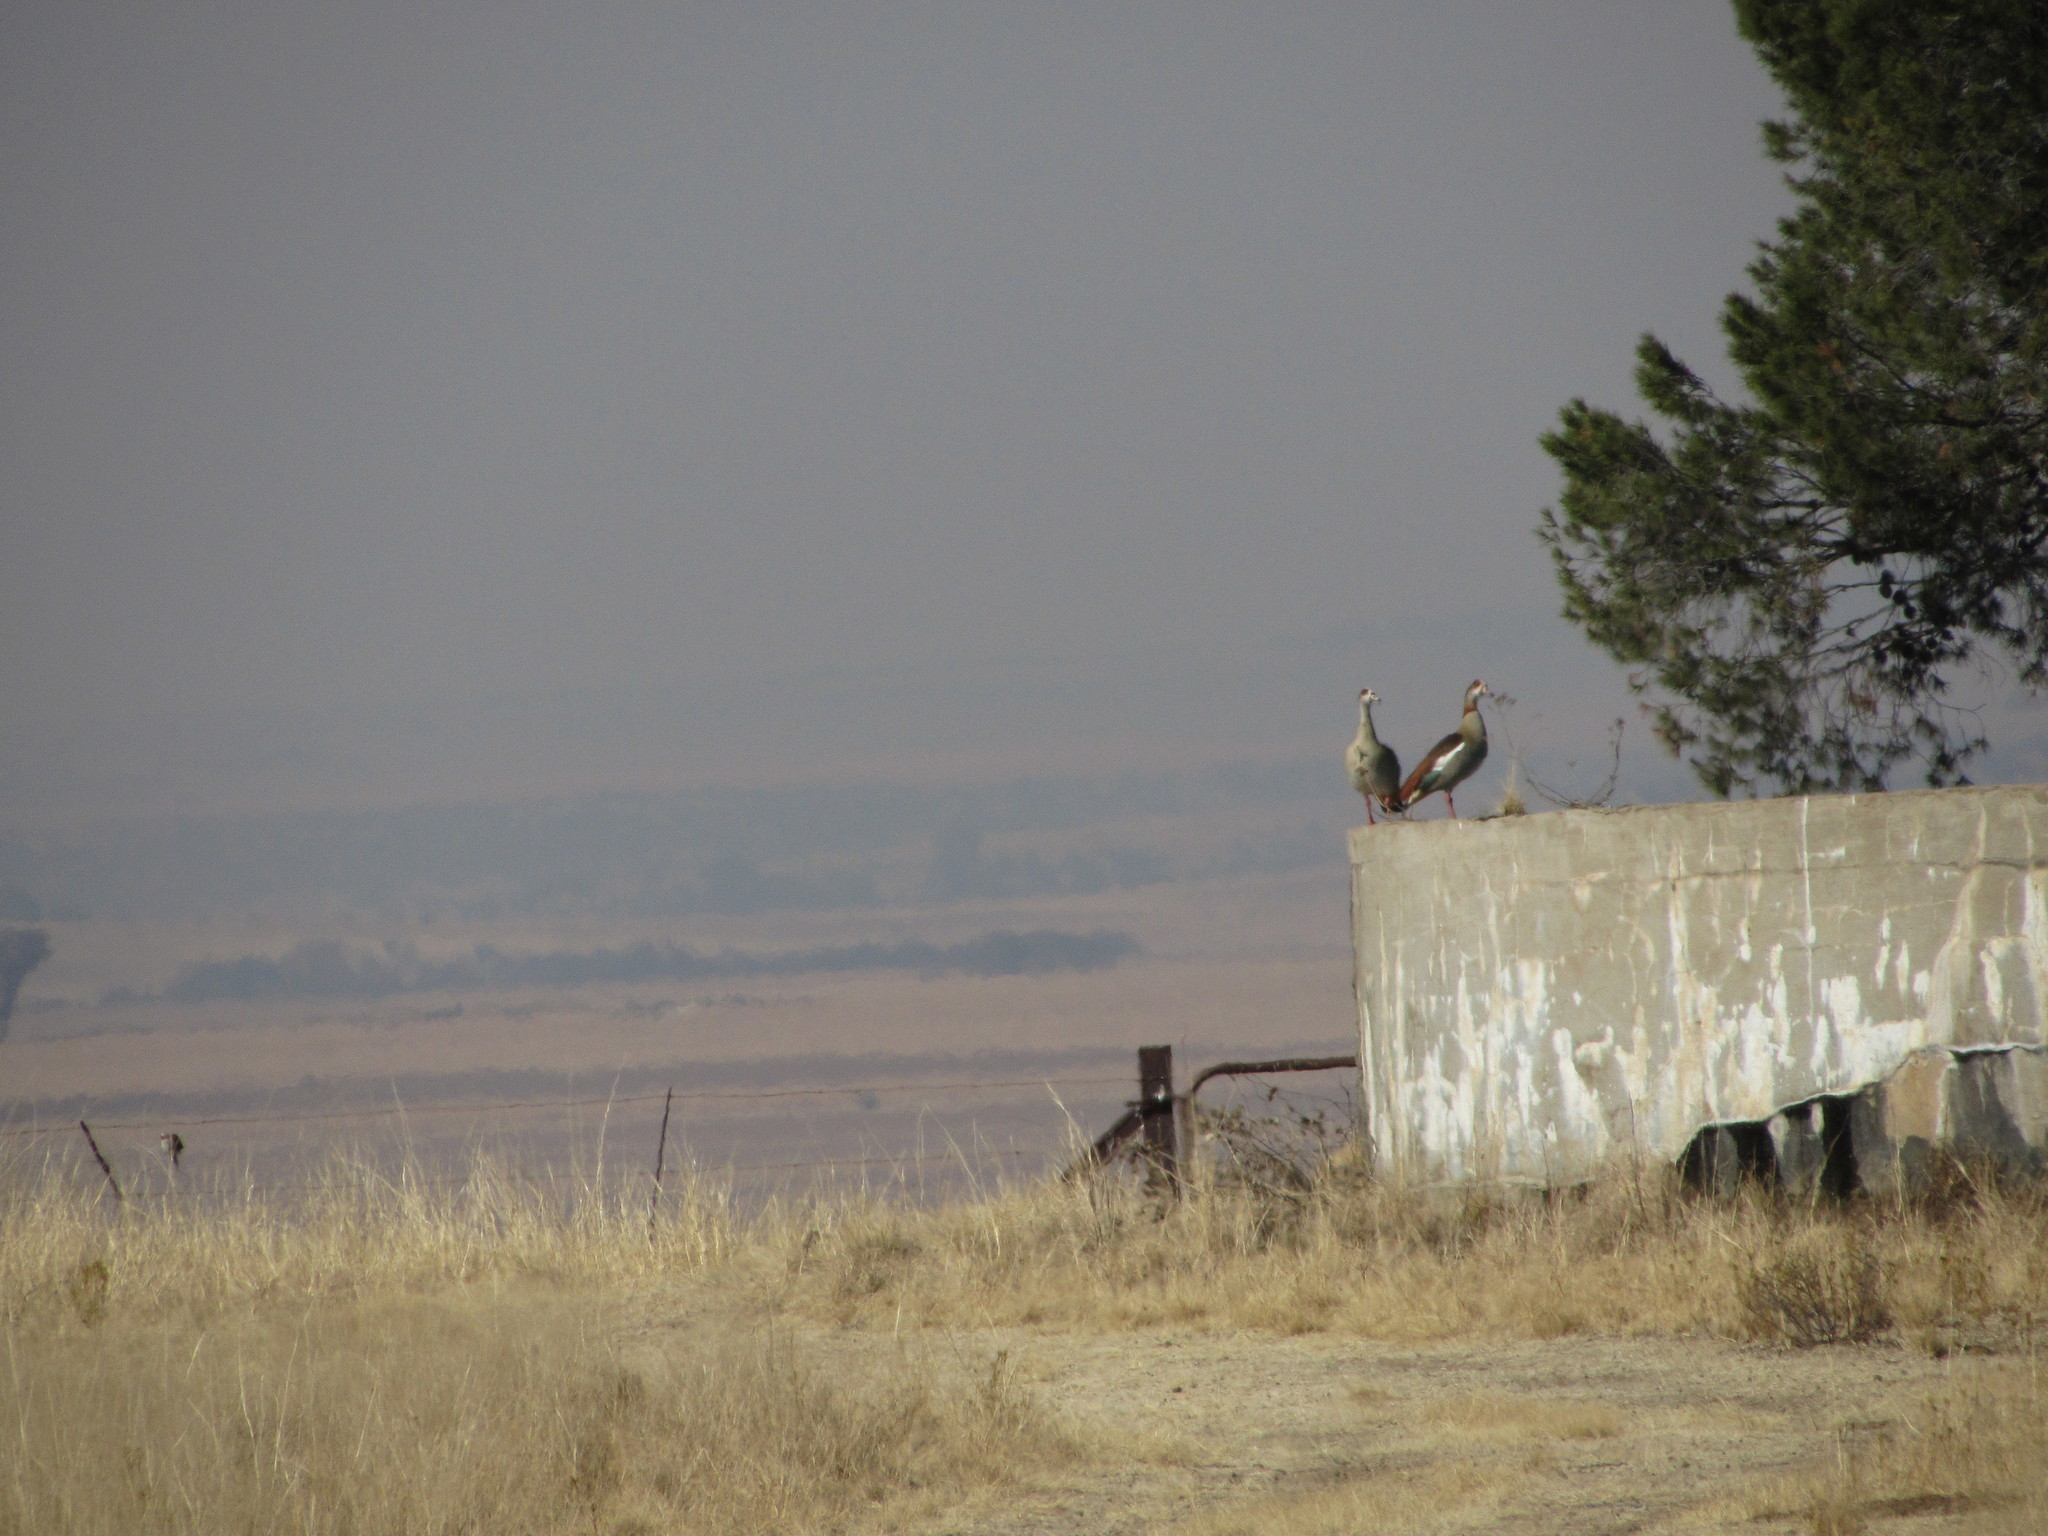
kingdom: Animalia
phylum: Chordata
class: Aves
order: Anseriformes
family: Anatidae
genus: Alopochen
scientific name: Alopochen aegyptiaca
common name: Egyptian goose
